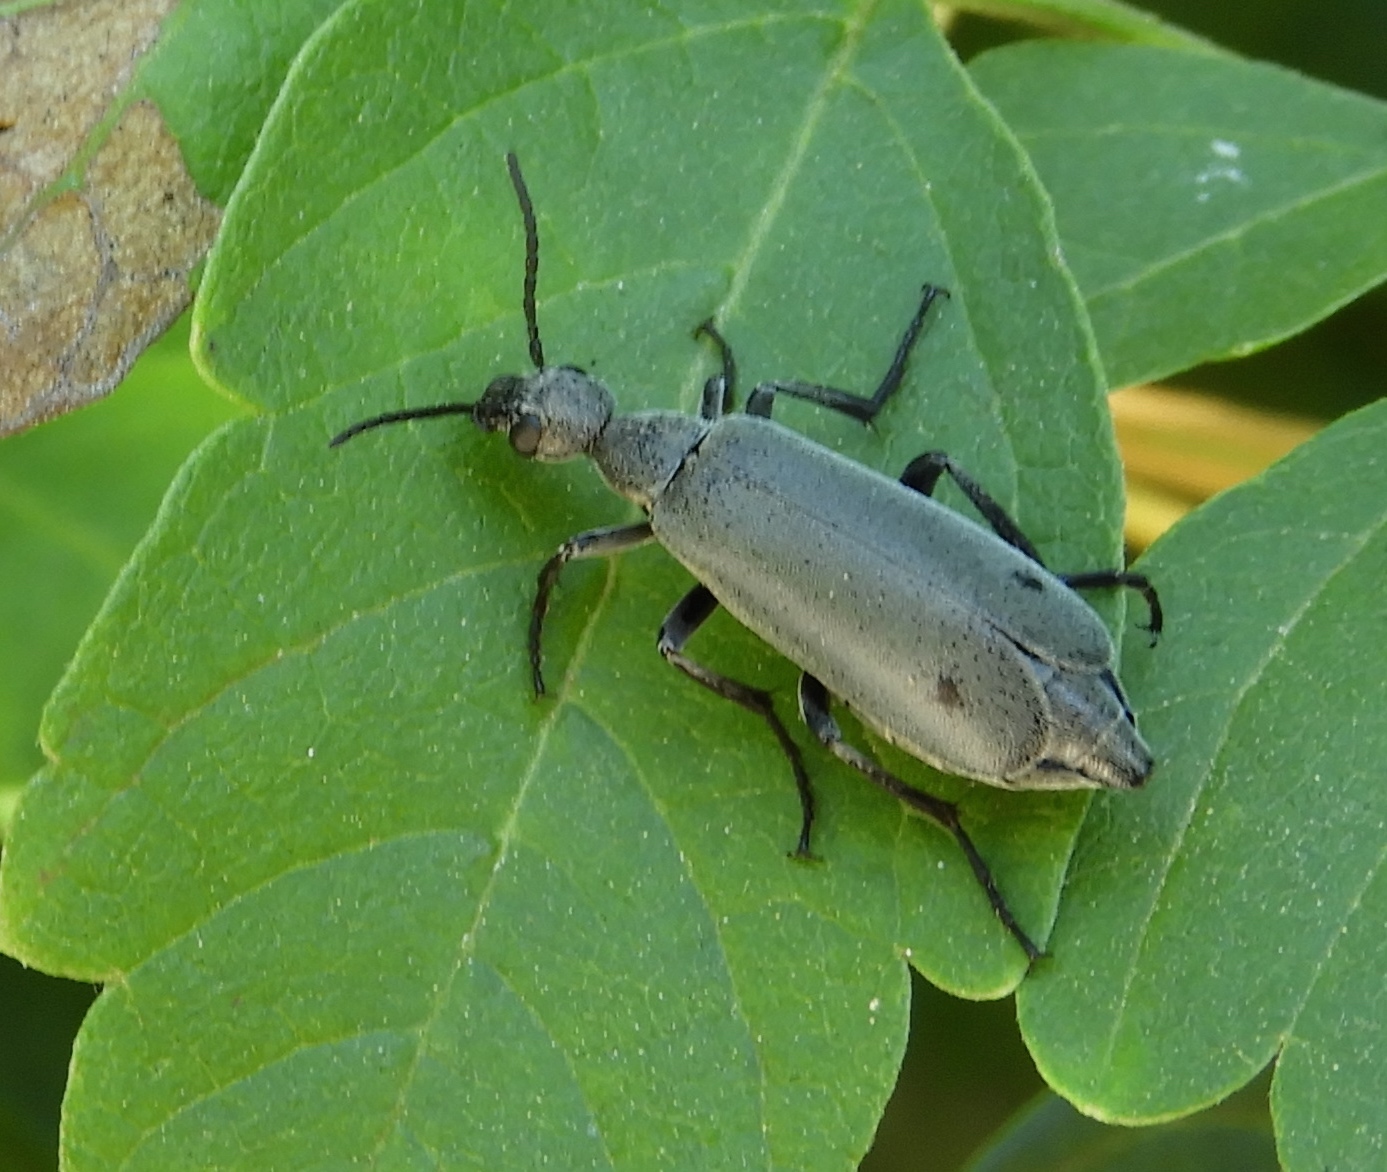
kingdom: Animalia
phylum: Arthropoda
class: Insecta
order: Coleoptera
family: Meloidae
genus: Epicauta
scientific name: Epicauta bipunctata
